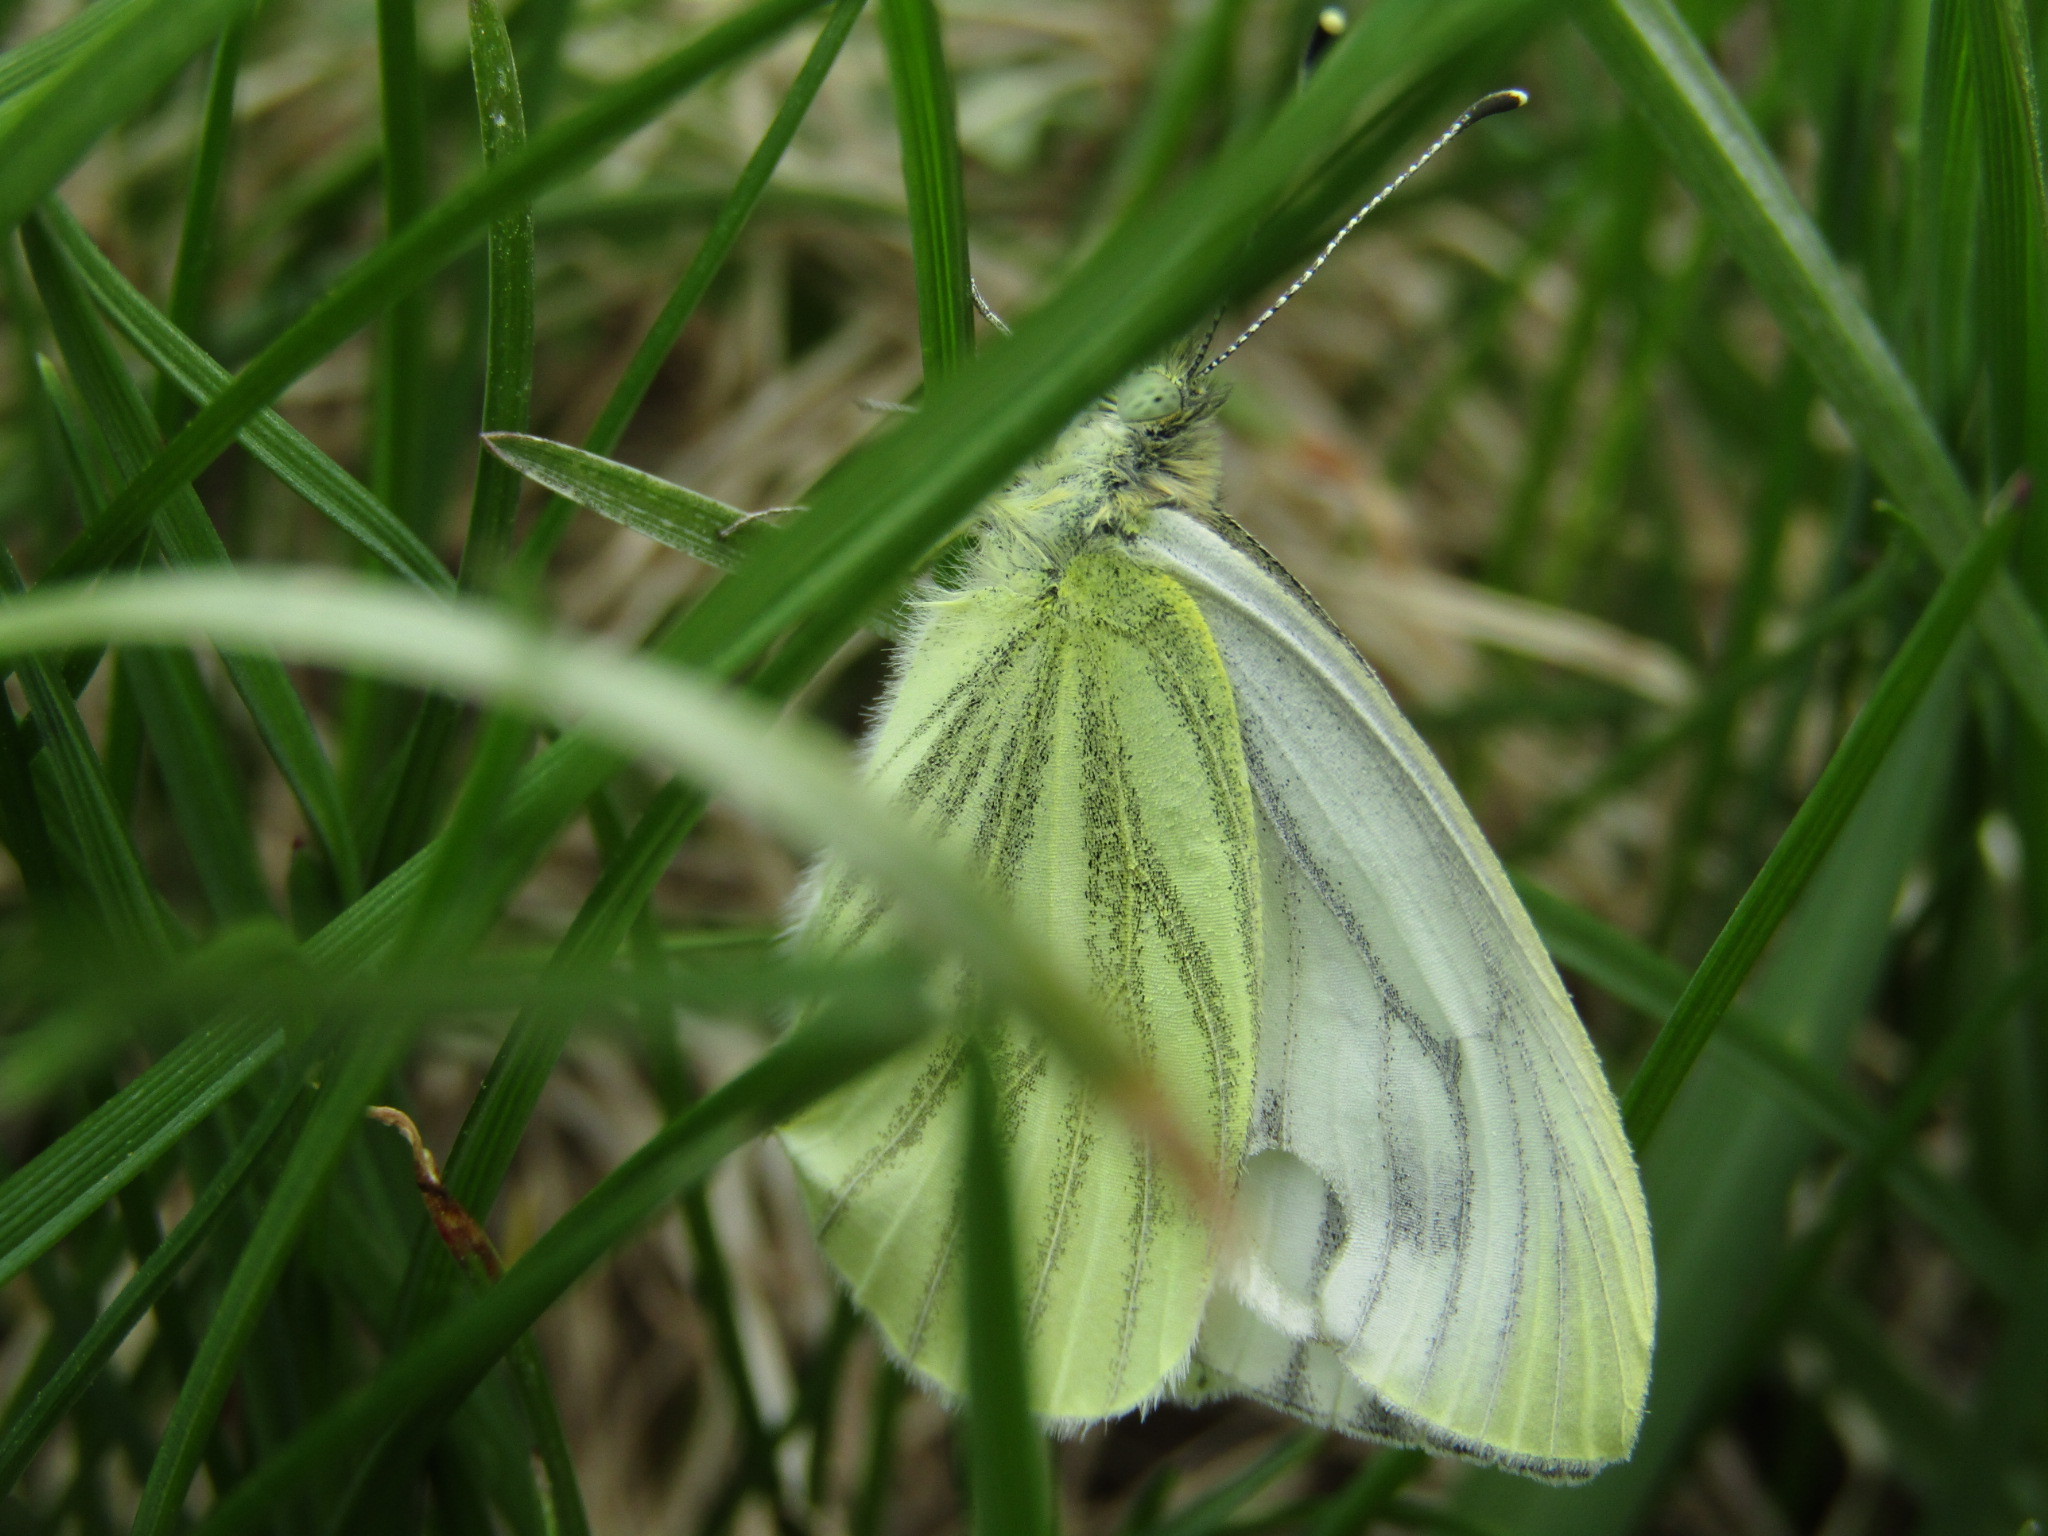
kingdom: Animalia
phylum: Arthropoda
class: Insecta
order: Lepidoptera
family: Pieridae
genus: Pieris
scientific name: Pieris napi
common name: Green-veined white
